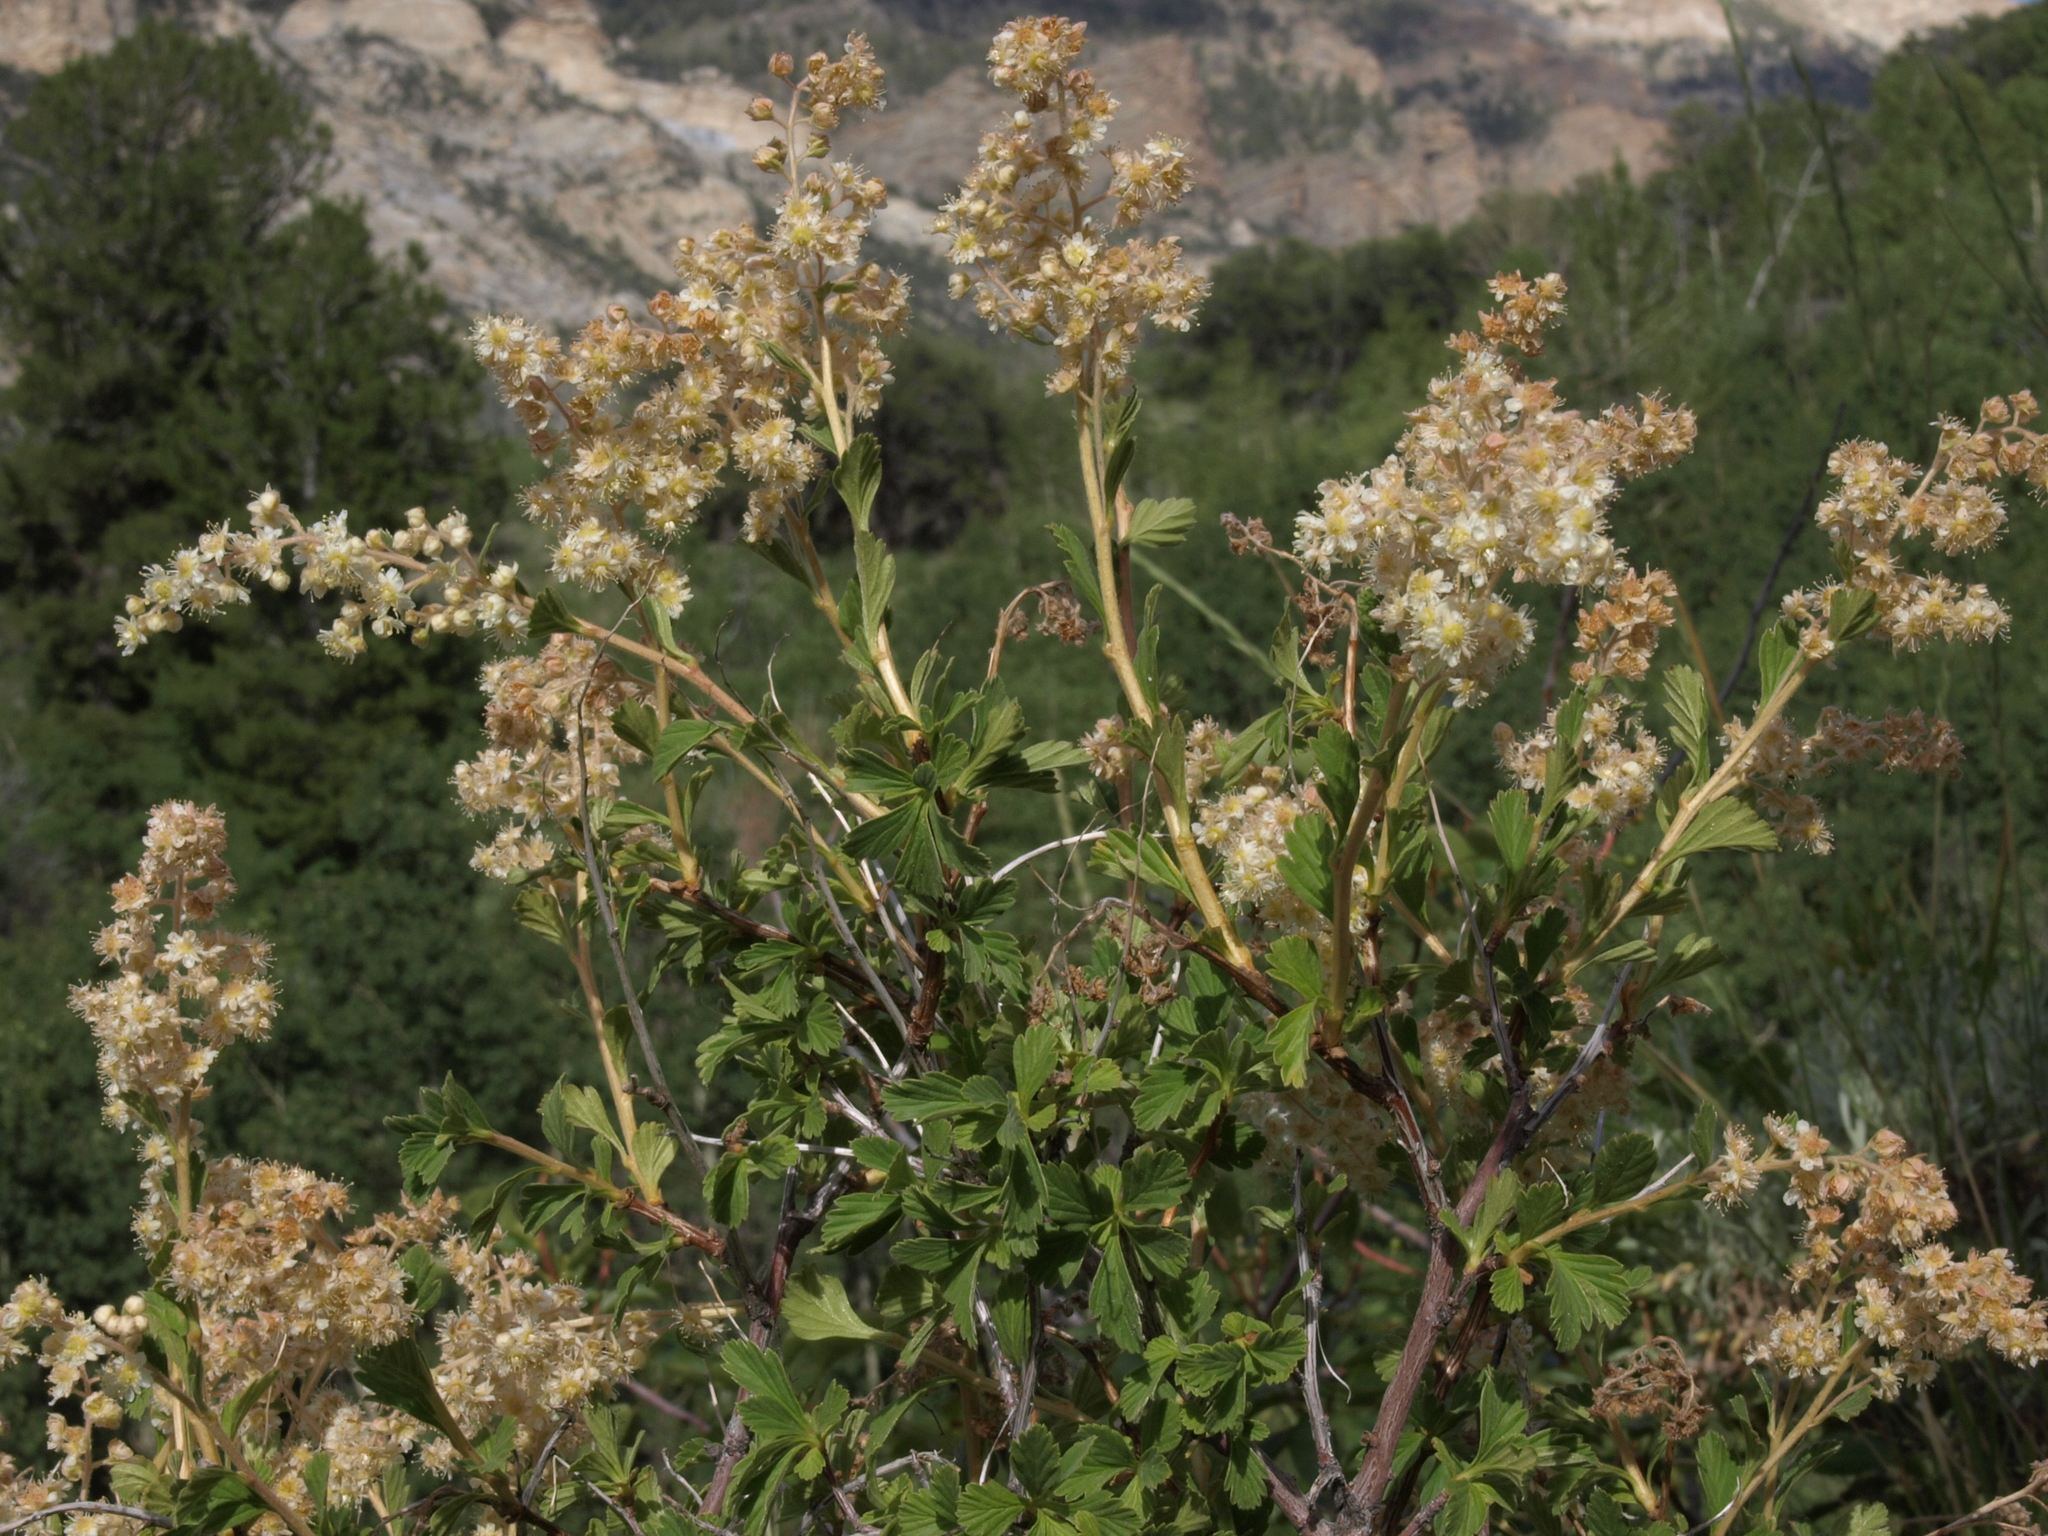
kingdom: Plantae
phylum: Tracheophyta
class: Magnoliopsida
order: Rosales
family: Rosaceae
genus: Holodiscus
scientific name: Holodiscus discolor
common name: Oceanspray
